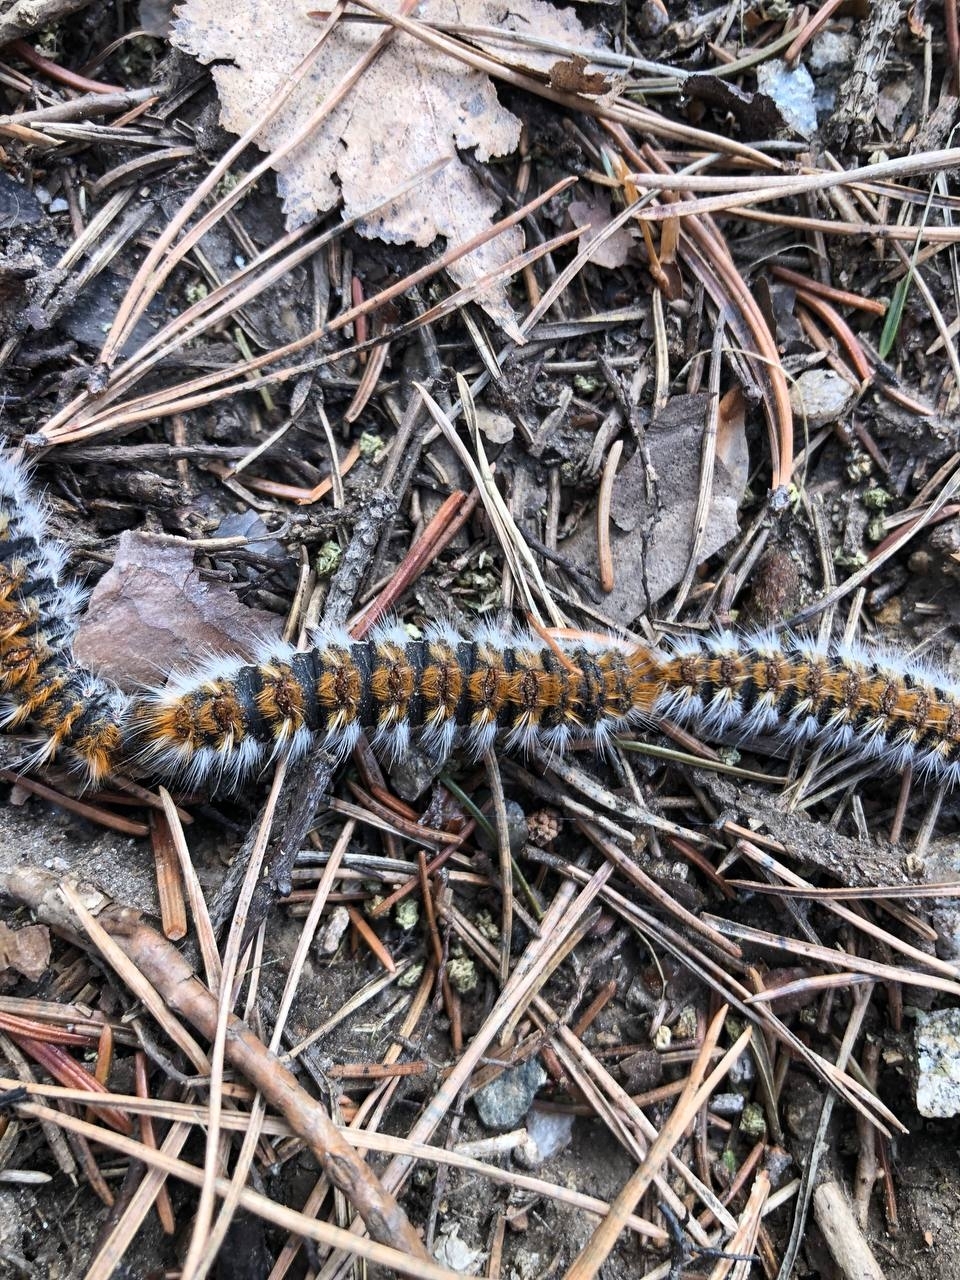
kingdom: Animalia
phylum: Arthropoda
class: Insecta
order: Lepidoptera
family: Notodontidae
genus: Thaumetopoea
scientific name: Thaumetopoea pityocampa
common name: Pine processionary
